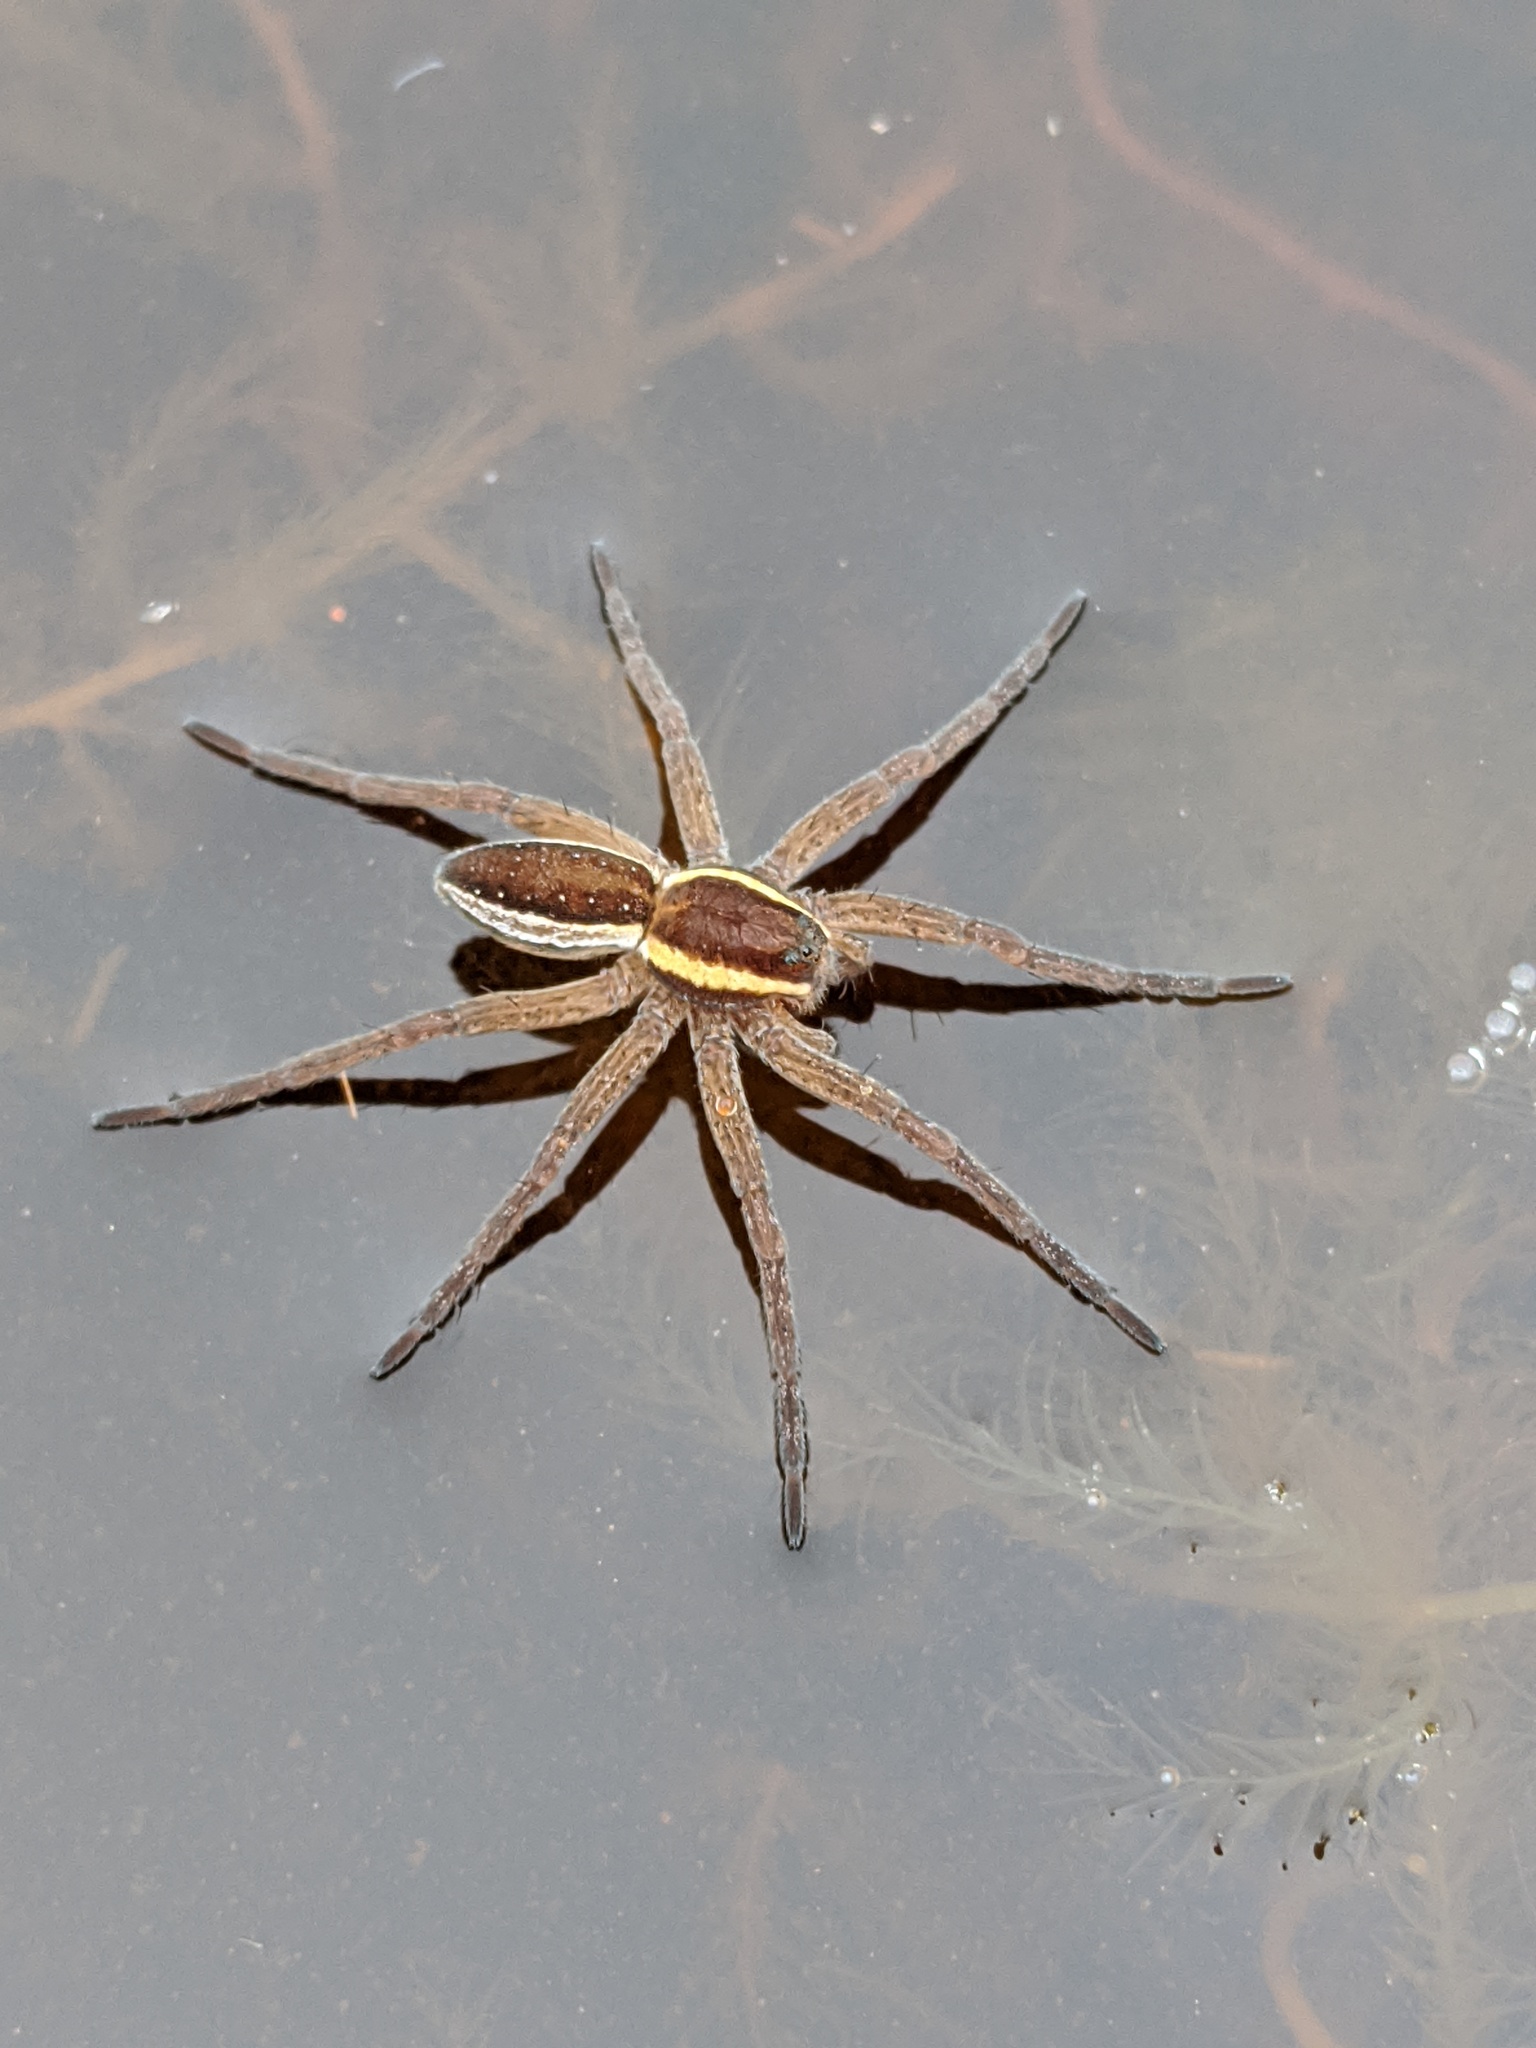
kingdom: Animalia
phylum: Arthropoda
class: Arachnida
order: Araneae
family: Pisauridae
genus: Dolomedes
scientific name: Dolomedes fimbriatus
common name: Raft spider
